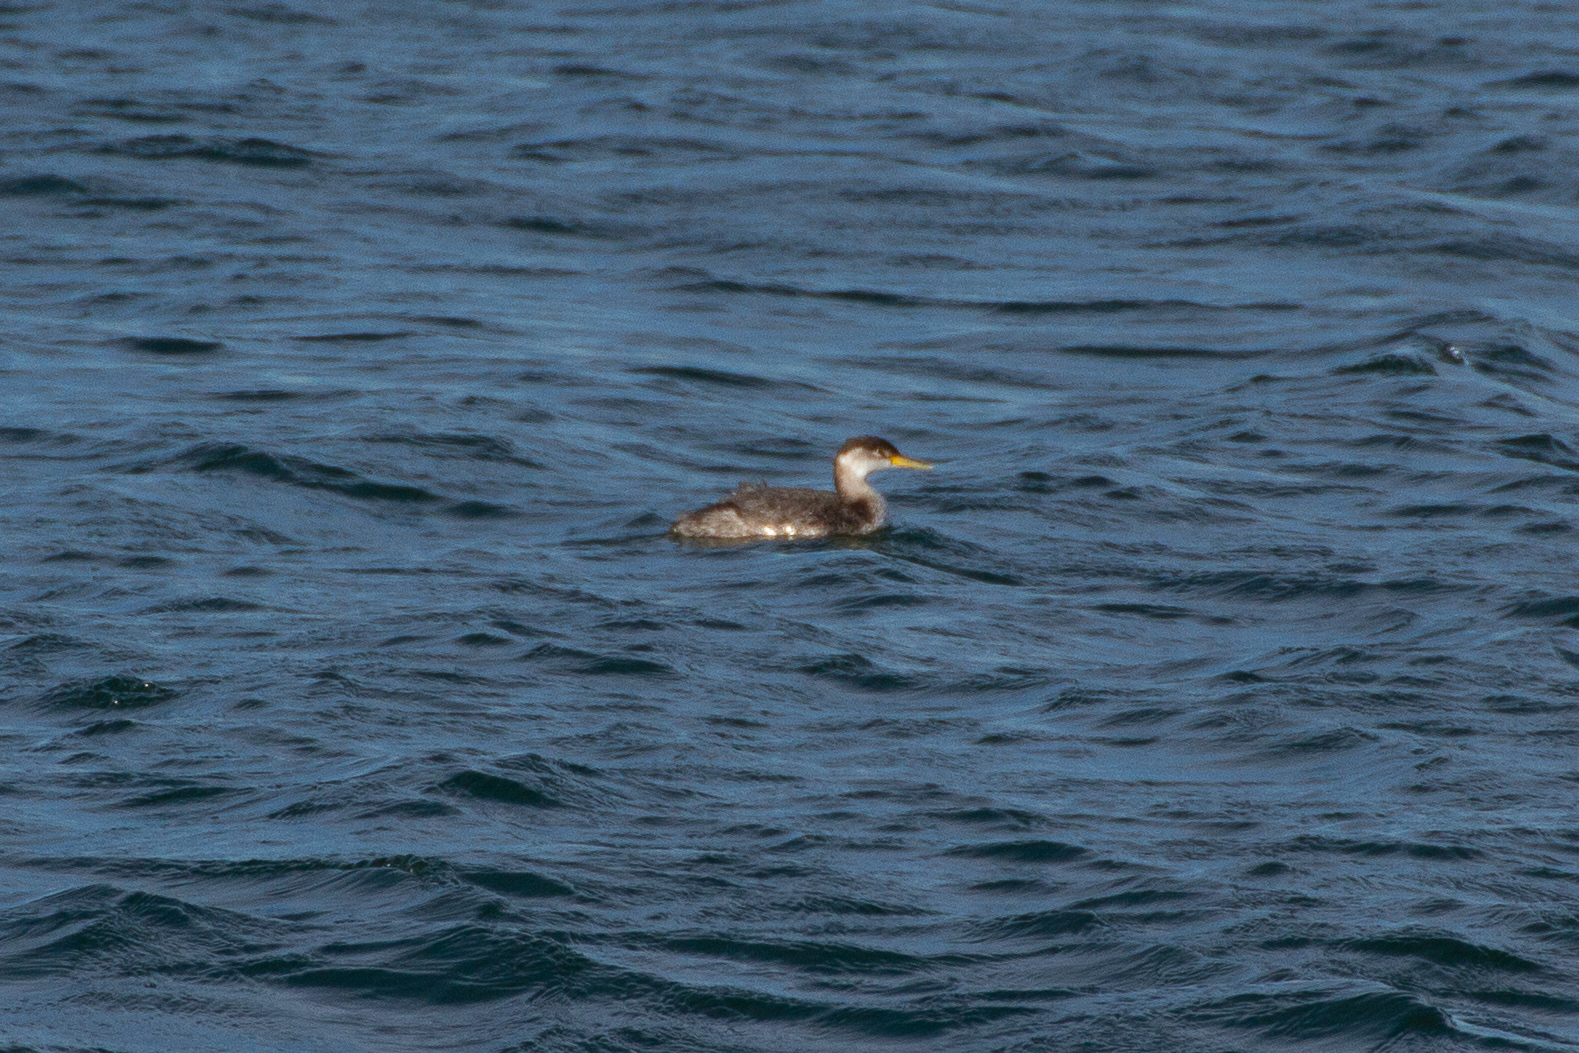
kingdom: Animalia
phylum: Chordata
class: Aves
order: Podicipediformes
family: Podicipedidae
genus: Podiceps
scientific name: Podiceps grisegena
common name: Red-necked grebe
